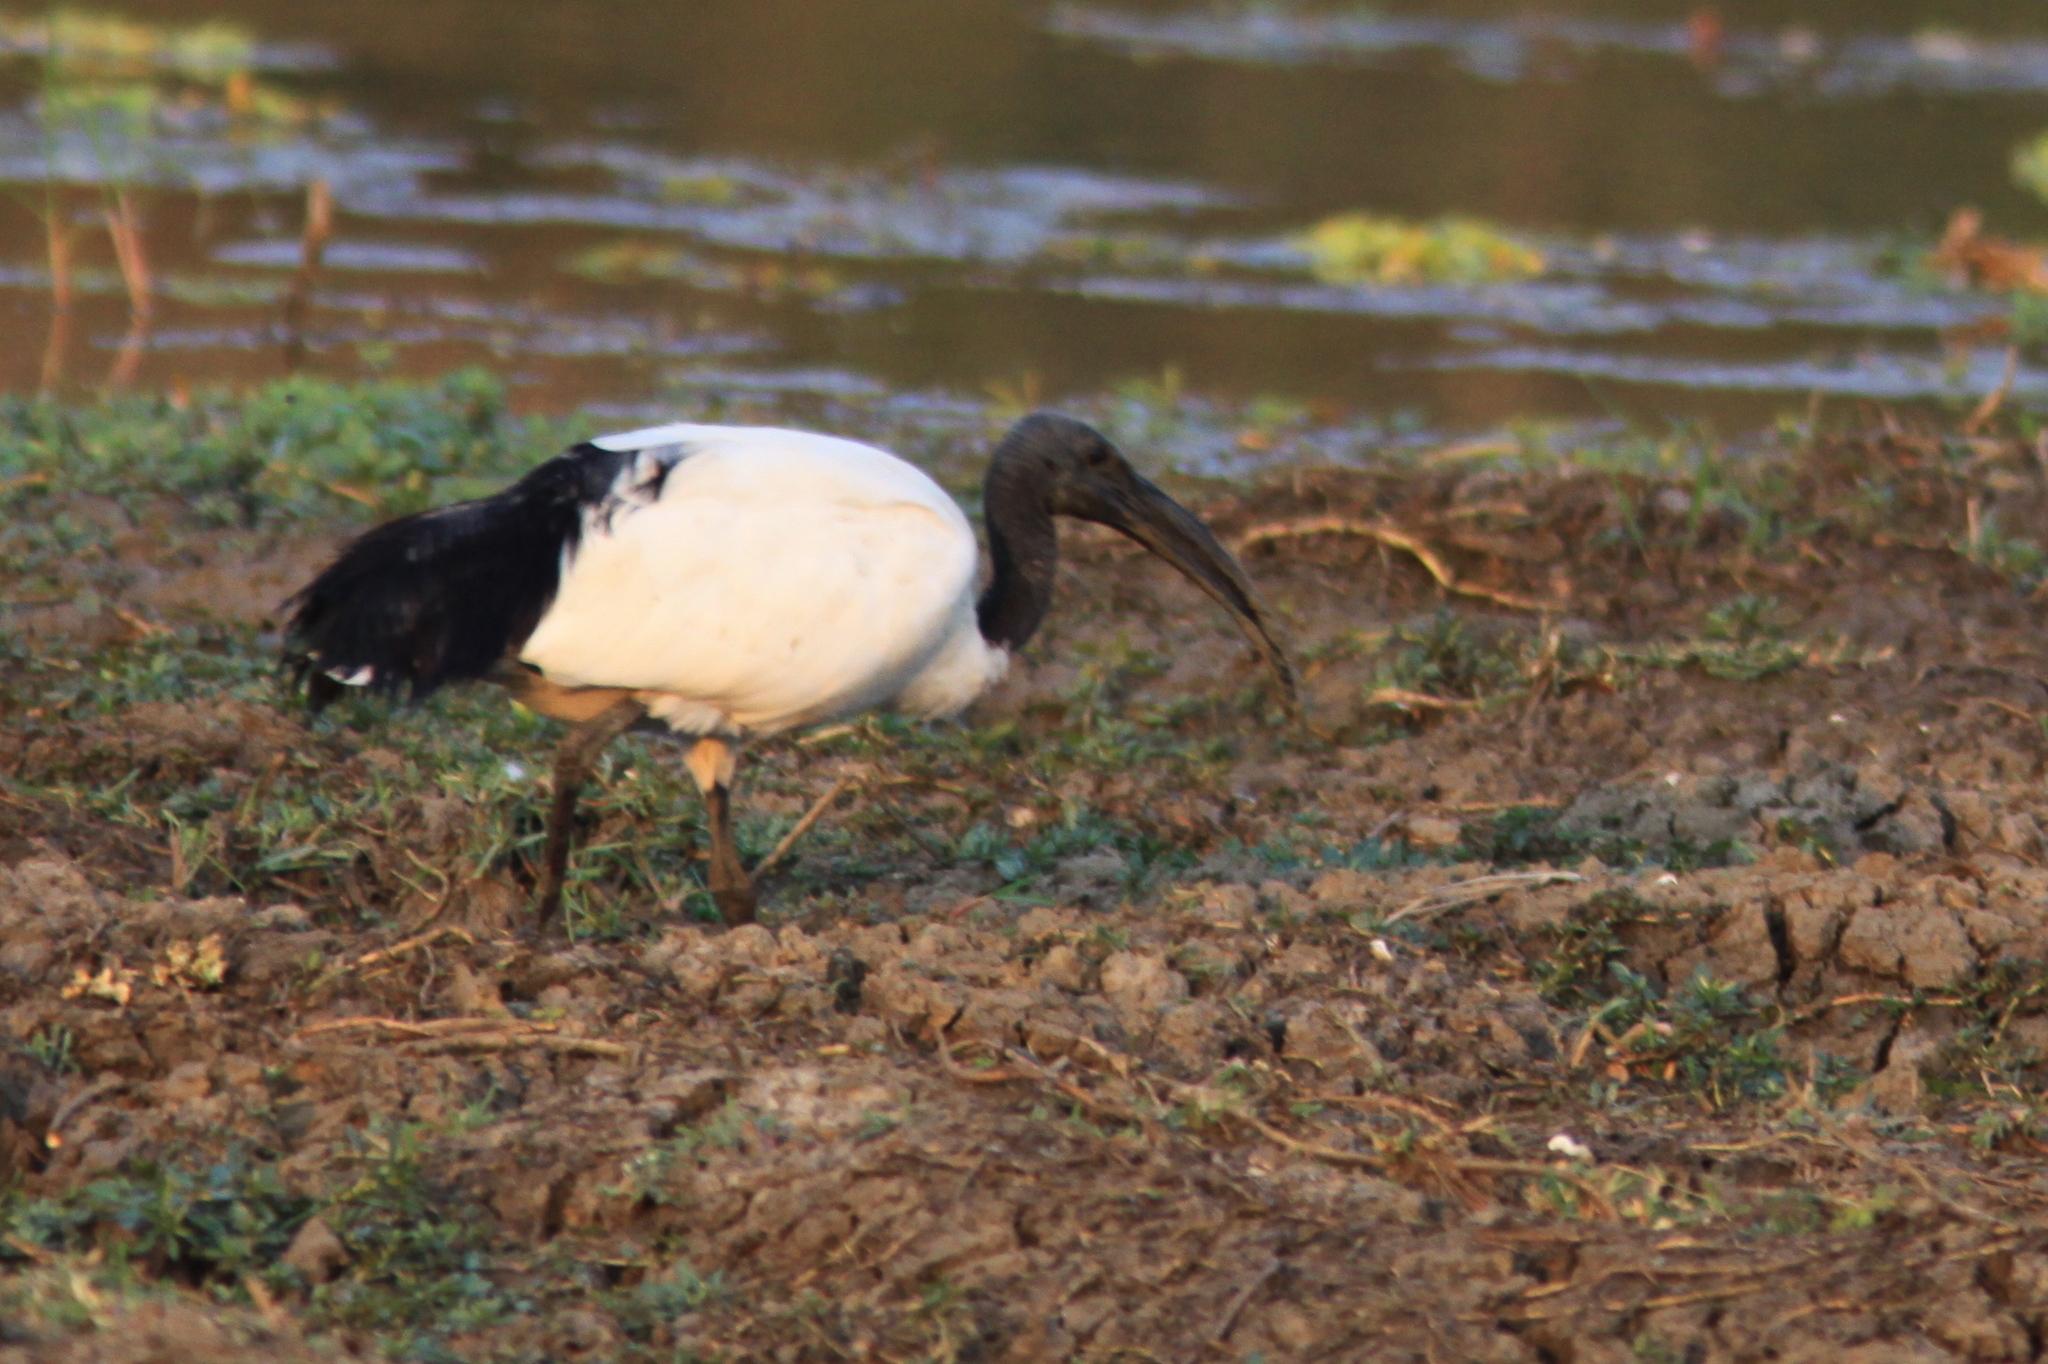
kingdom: Animalia
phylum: Chordata
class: Aves
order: Pelecaniformes
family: Threskiornithidae
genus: Threskiornis
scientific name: Threskiornis aethiopicus
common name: Sacred ibis
